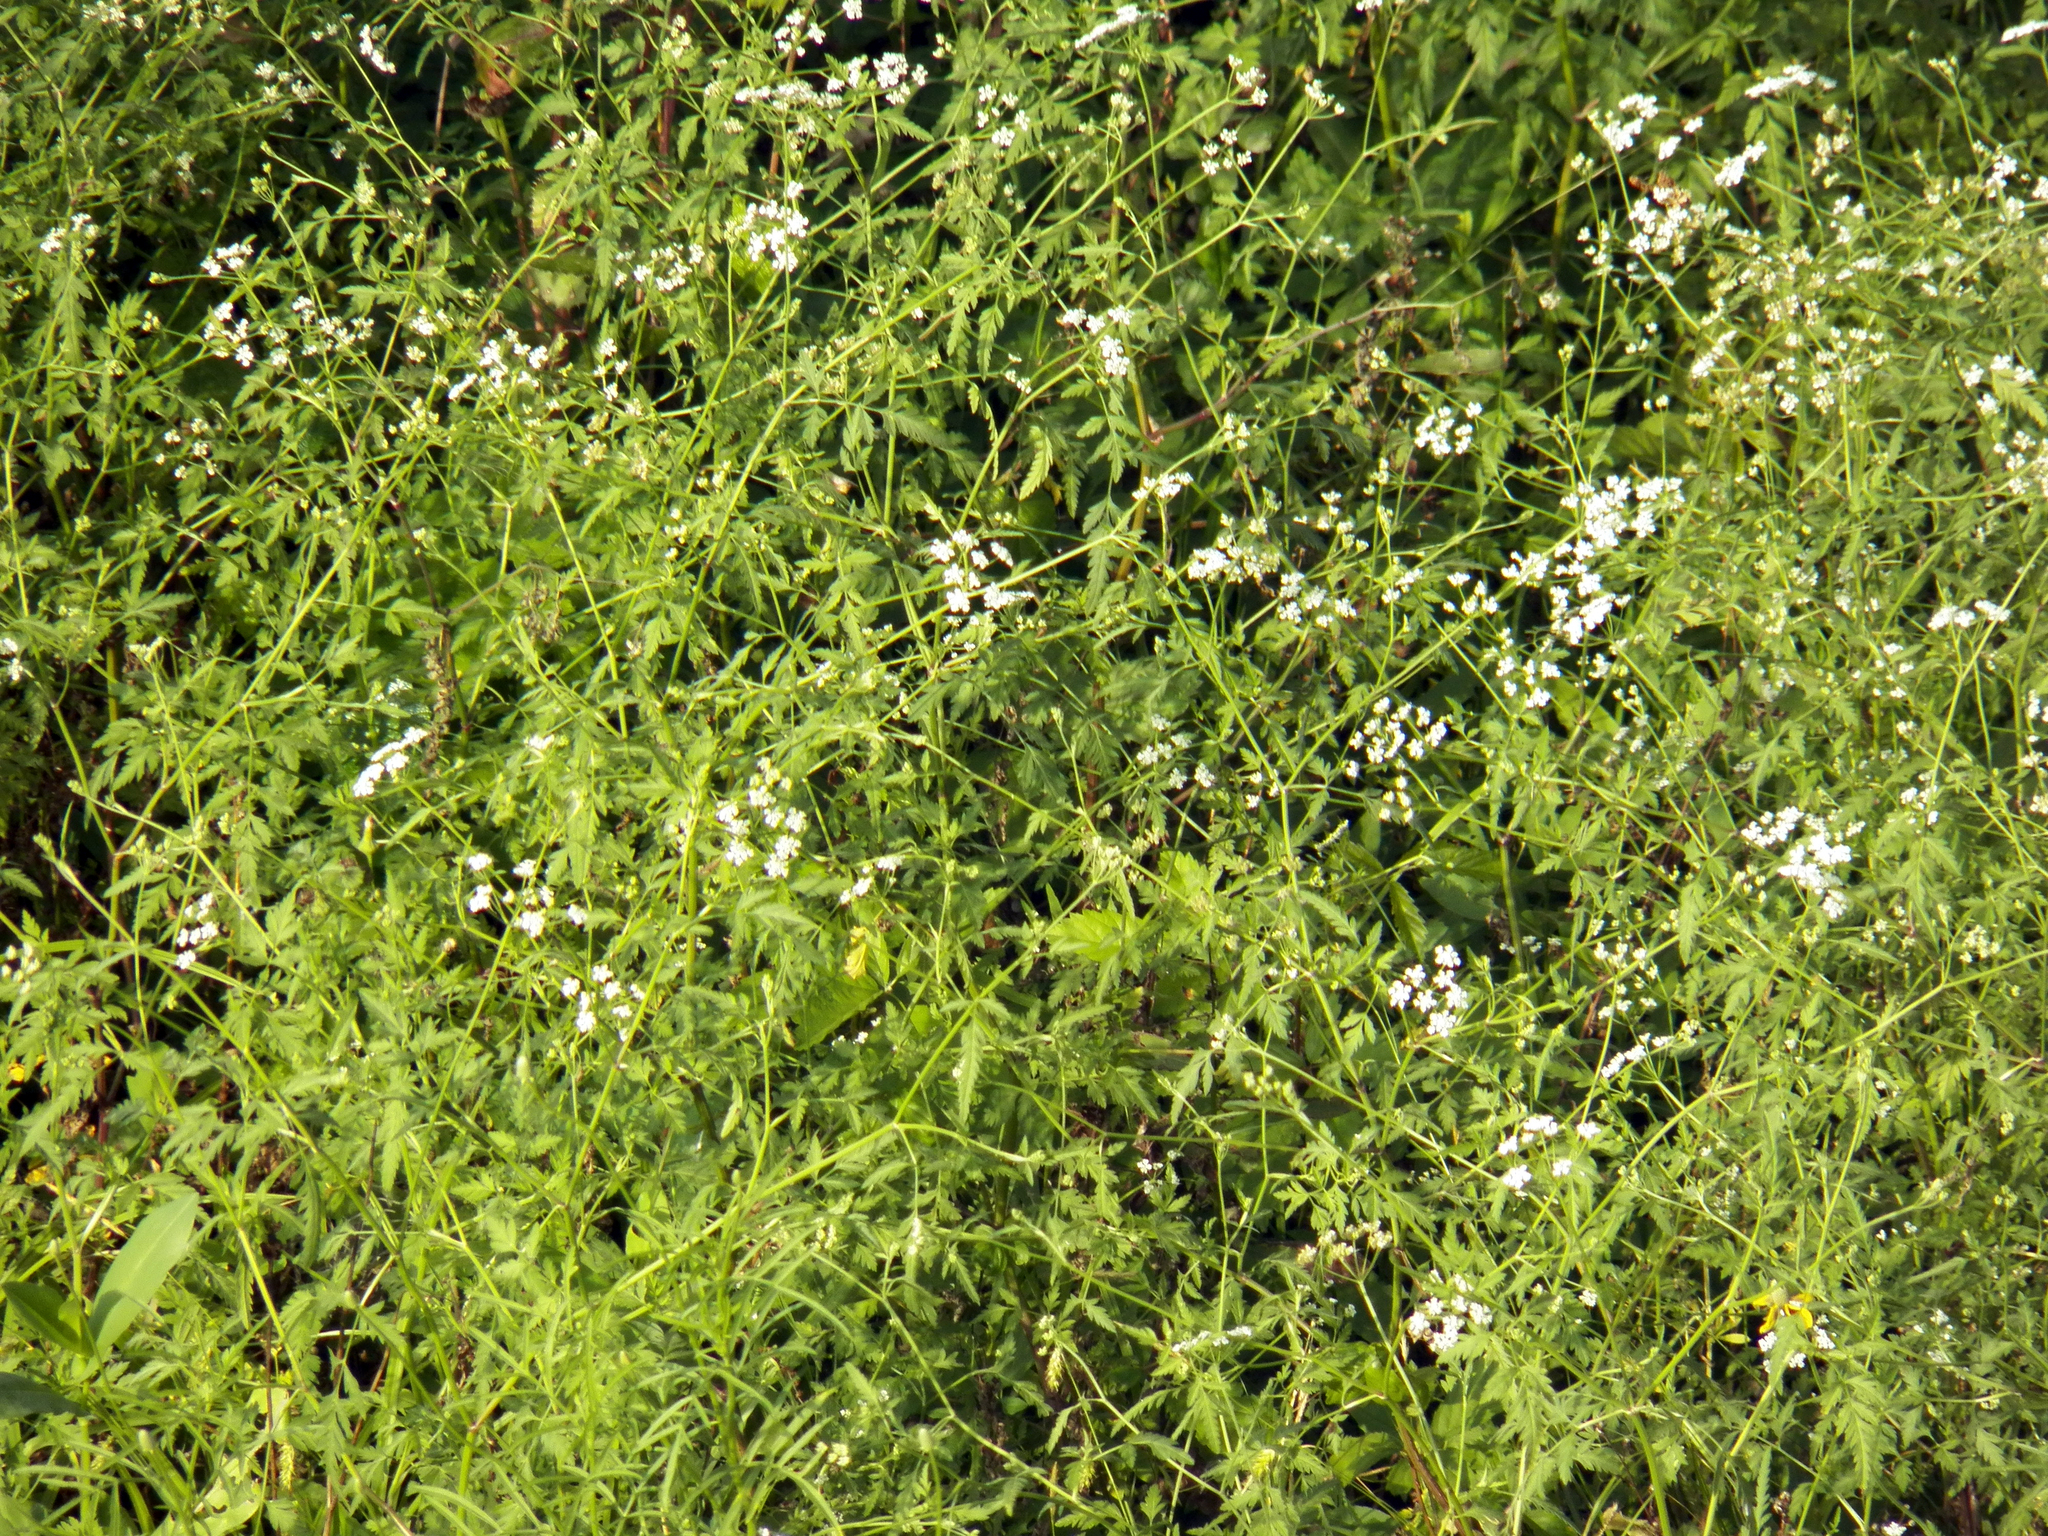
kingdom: Plantae
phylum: Tracheophyta
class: Magnoliopsida
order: Apiales
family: Apiaceae
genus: Torilis
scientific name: Torilis arvensis
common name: Spreading hedge-parsley
